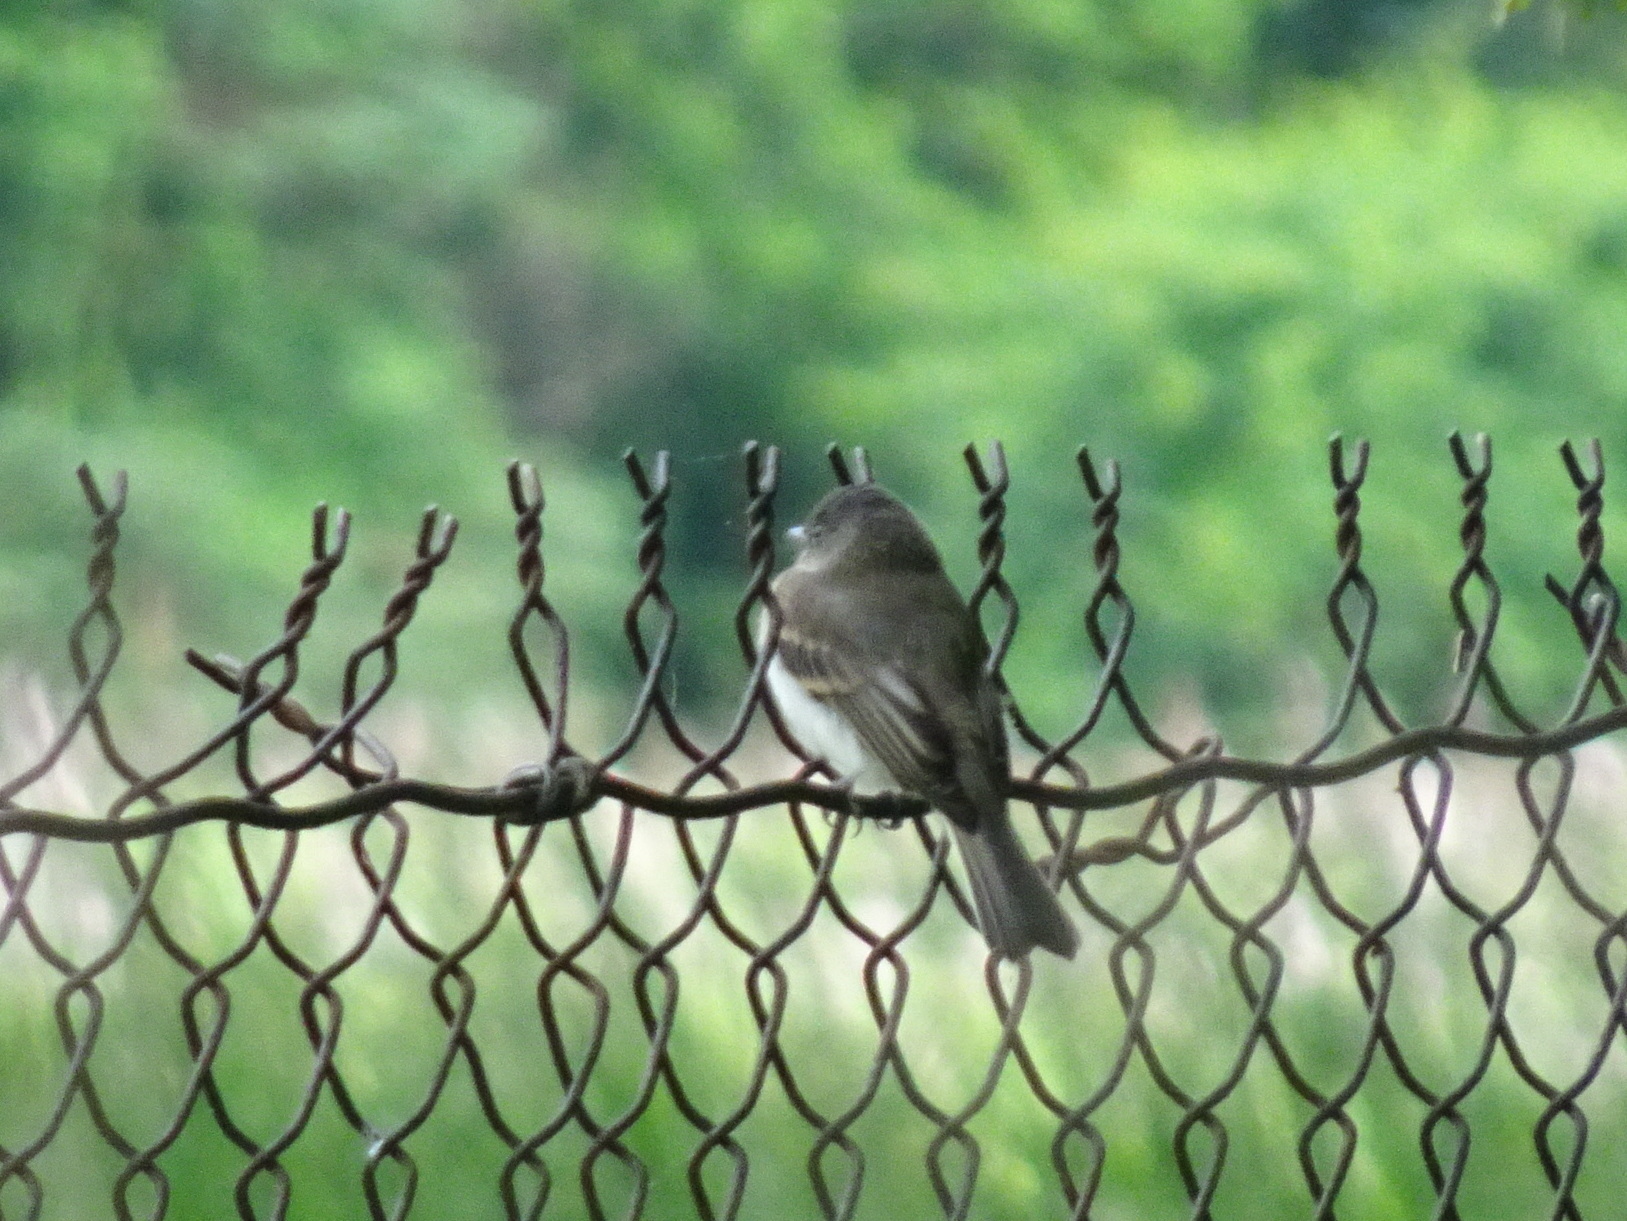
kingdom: Animalia
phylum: Chordata
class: Aves
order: Passeriformes
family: Tyrannidae
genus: Sayornis
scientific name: Sayornis phoebe
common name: Eastern phoebe
